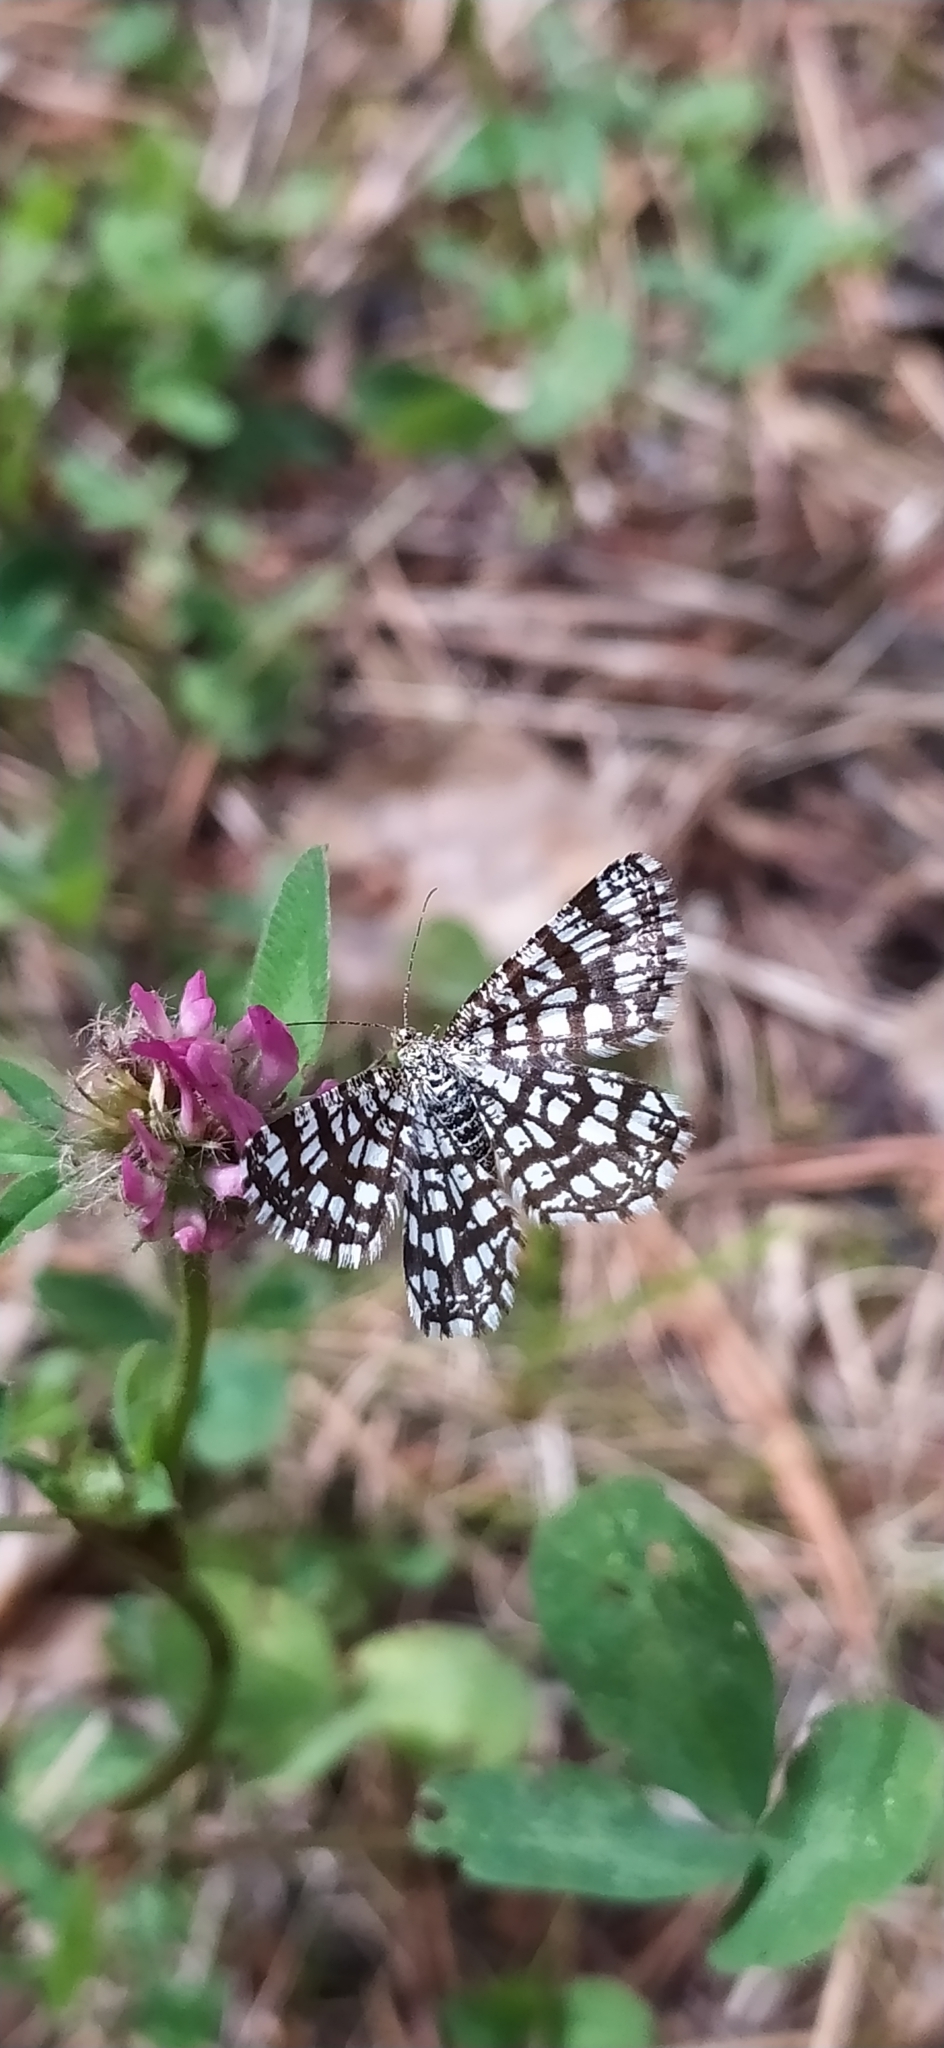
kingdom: Animalia
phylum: Arthropoda
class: Insecta
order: Lepidoptera
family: Geometridae
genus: Chiasmia
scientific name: Chiasmia clathrata
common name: Latticed heath
